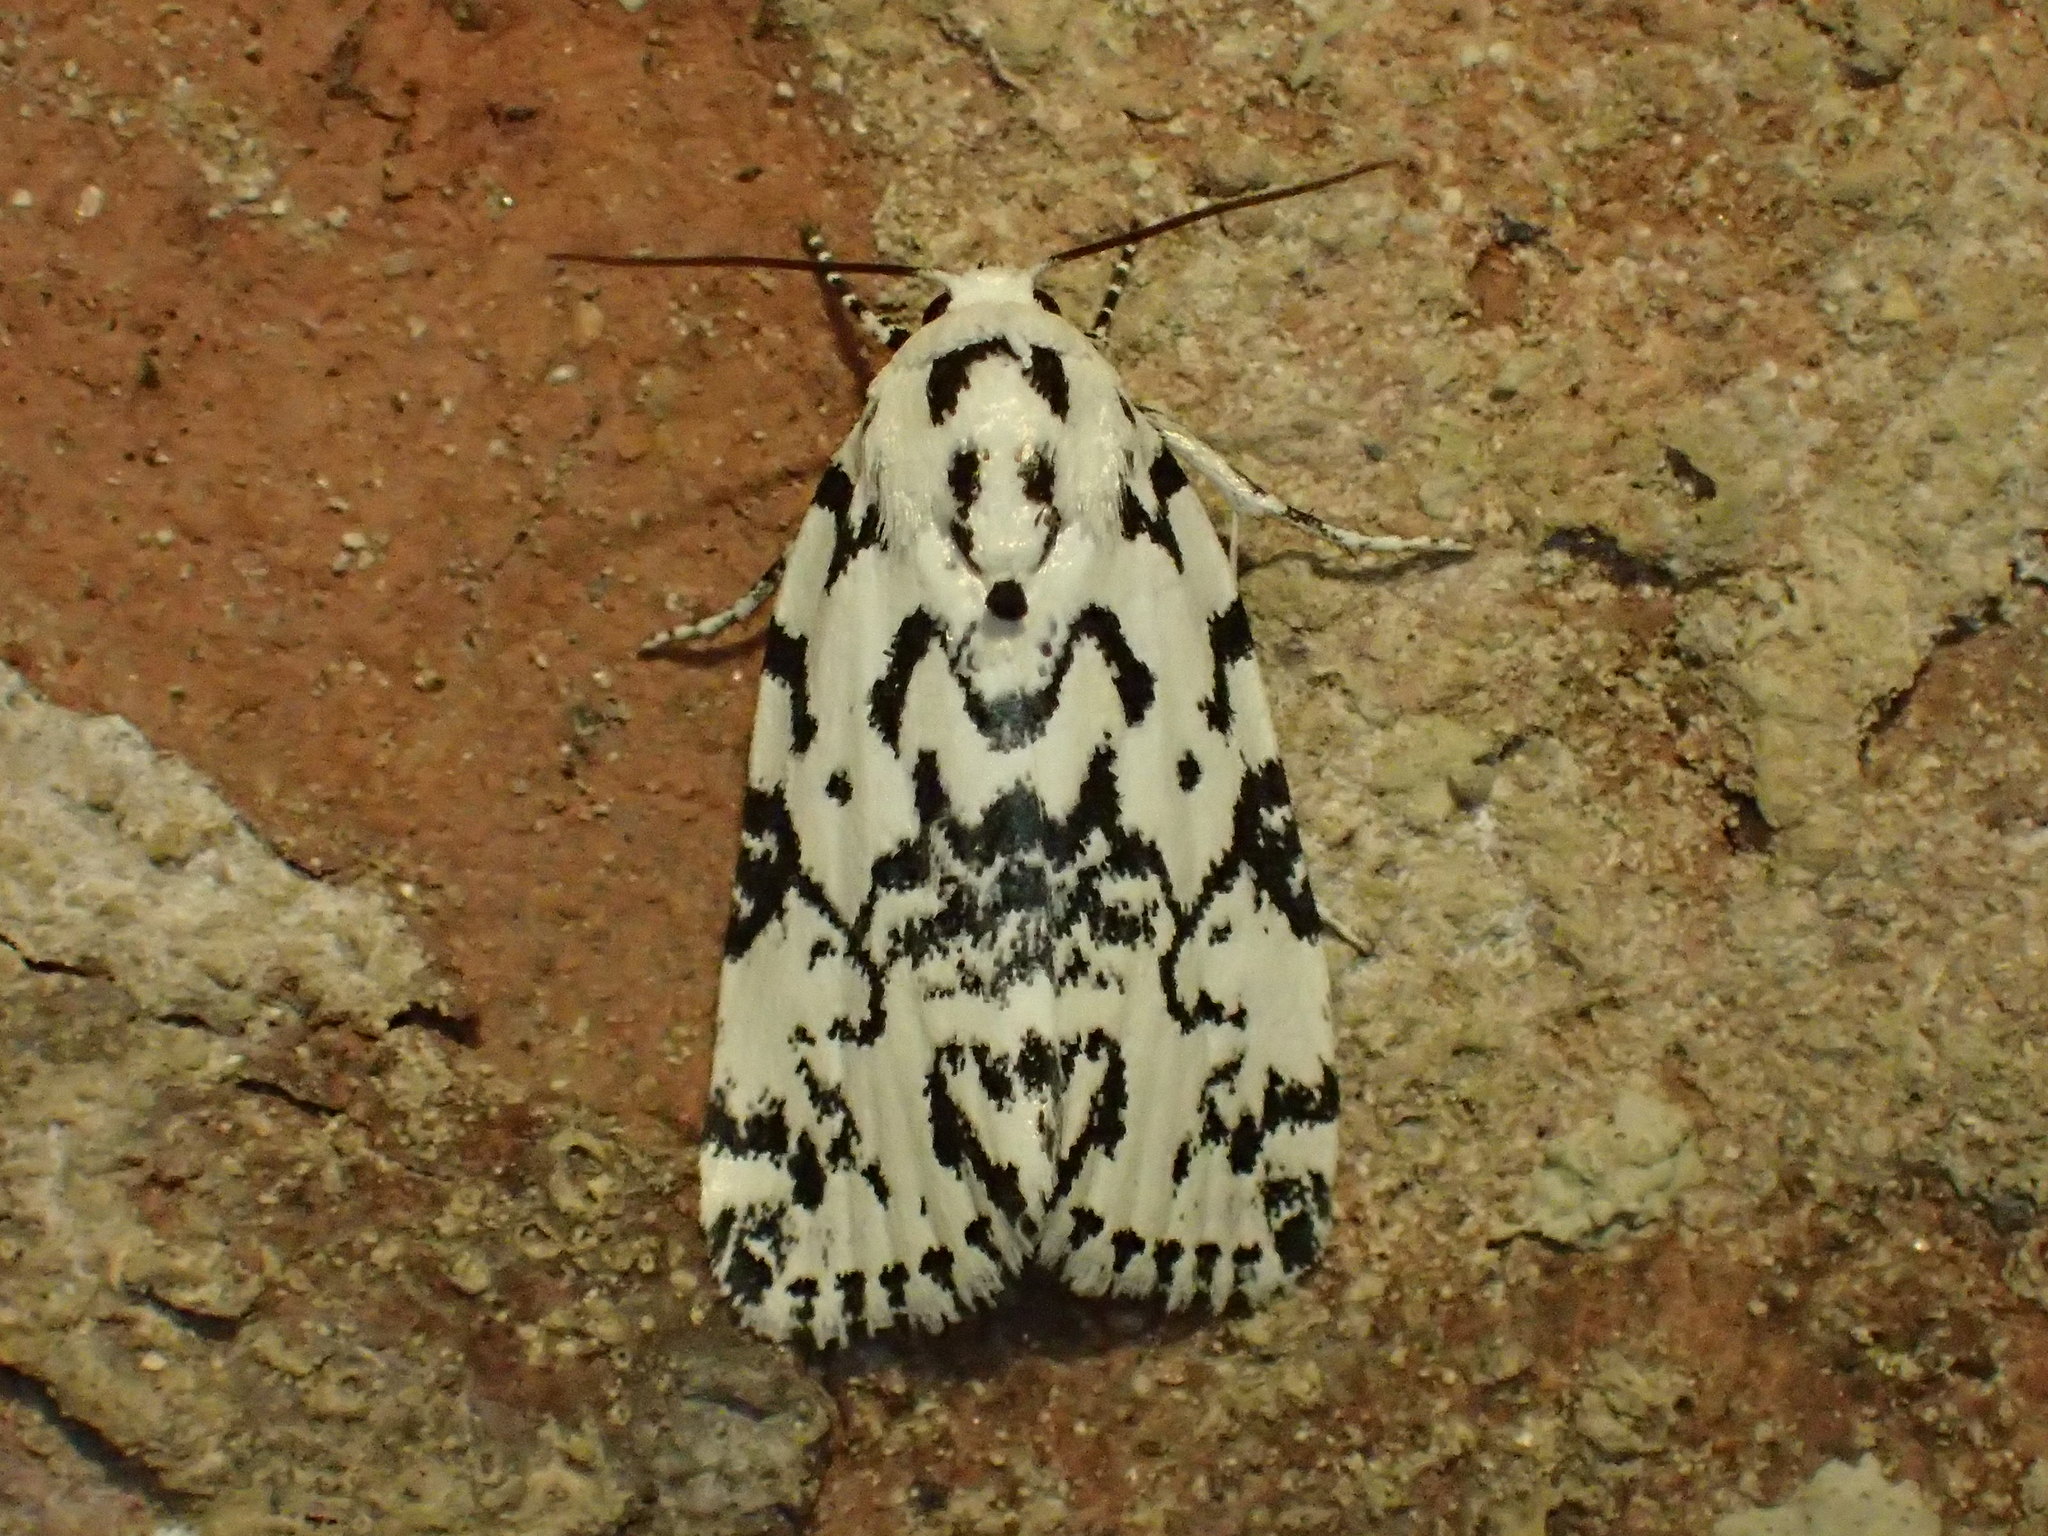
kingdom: Animalia
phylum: Arthropoda
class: Insecta
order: Lepidoptera
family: Noctuidae
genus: Polygrammate
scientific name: Polygrammate hebraeicum
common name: Hebrew moth
